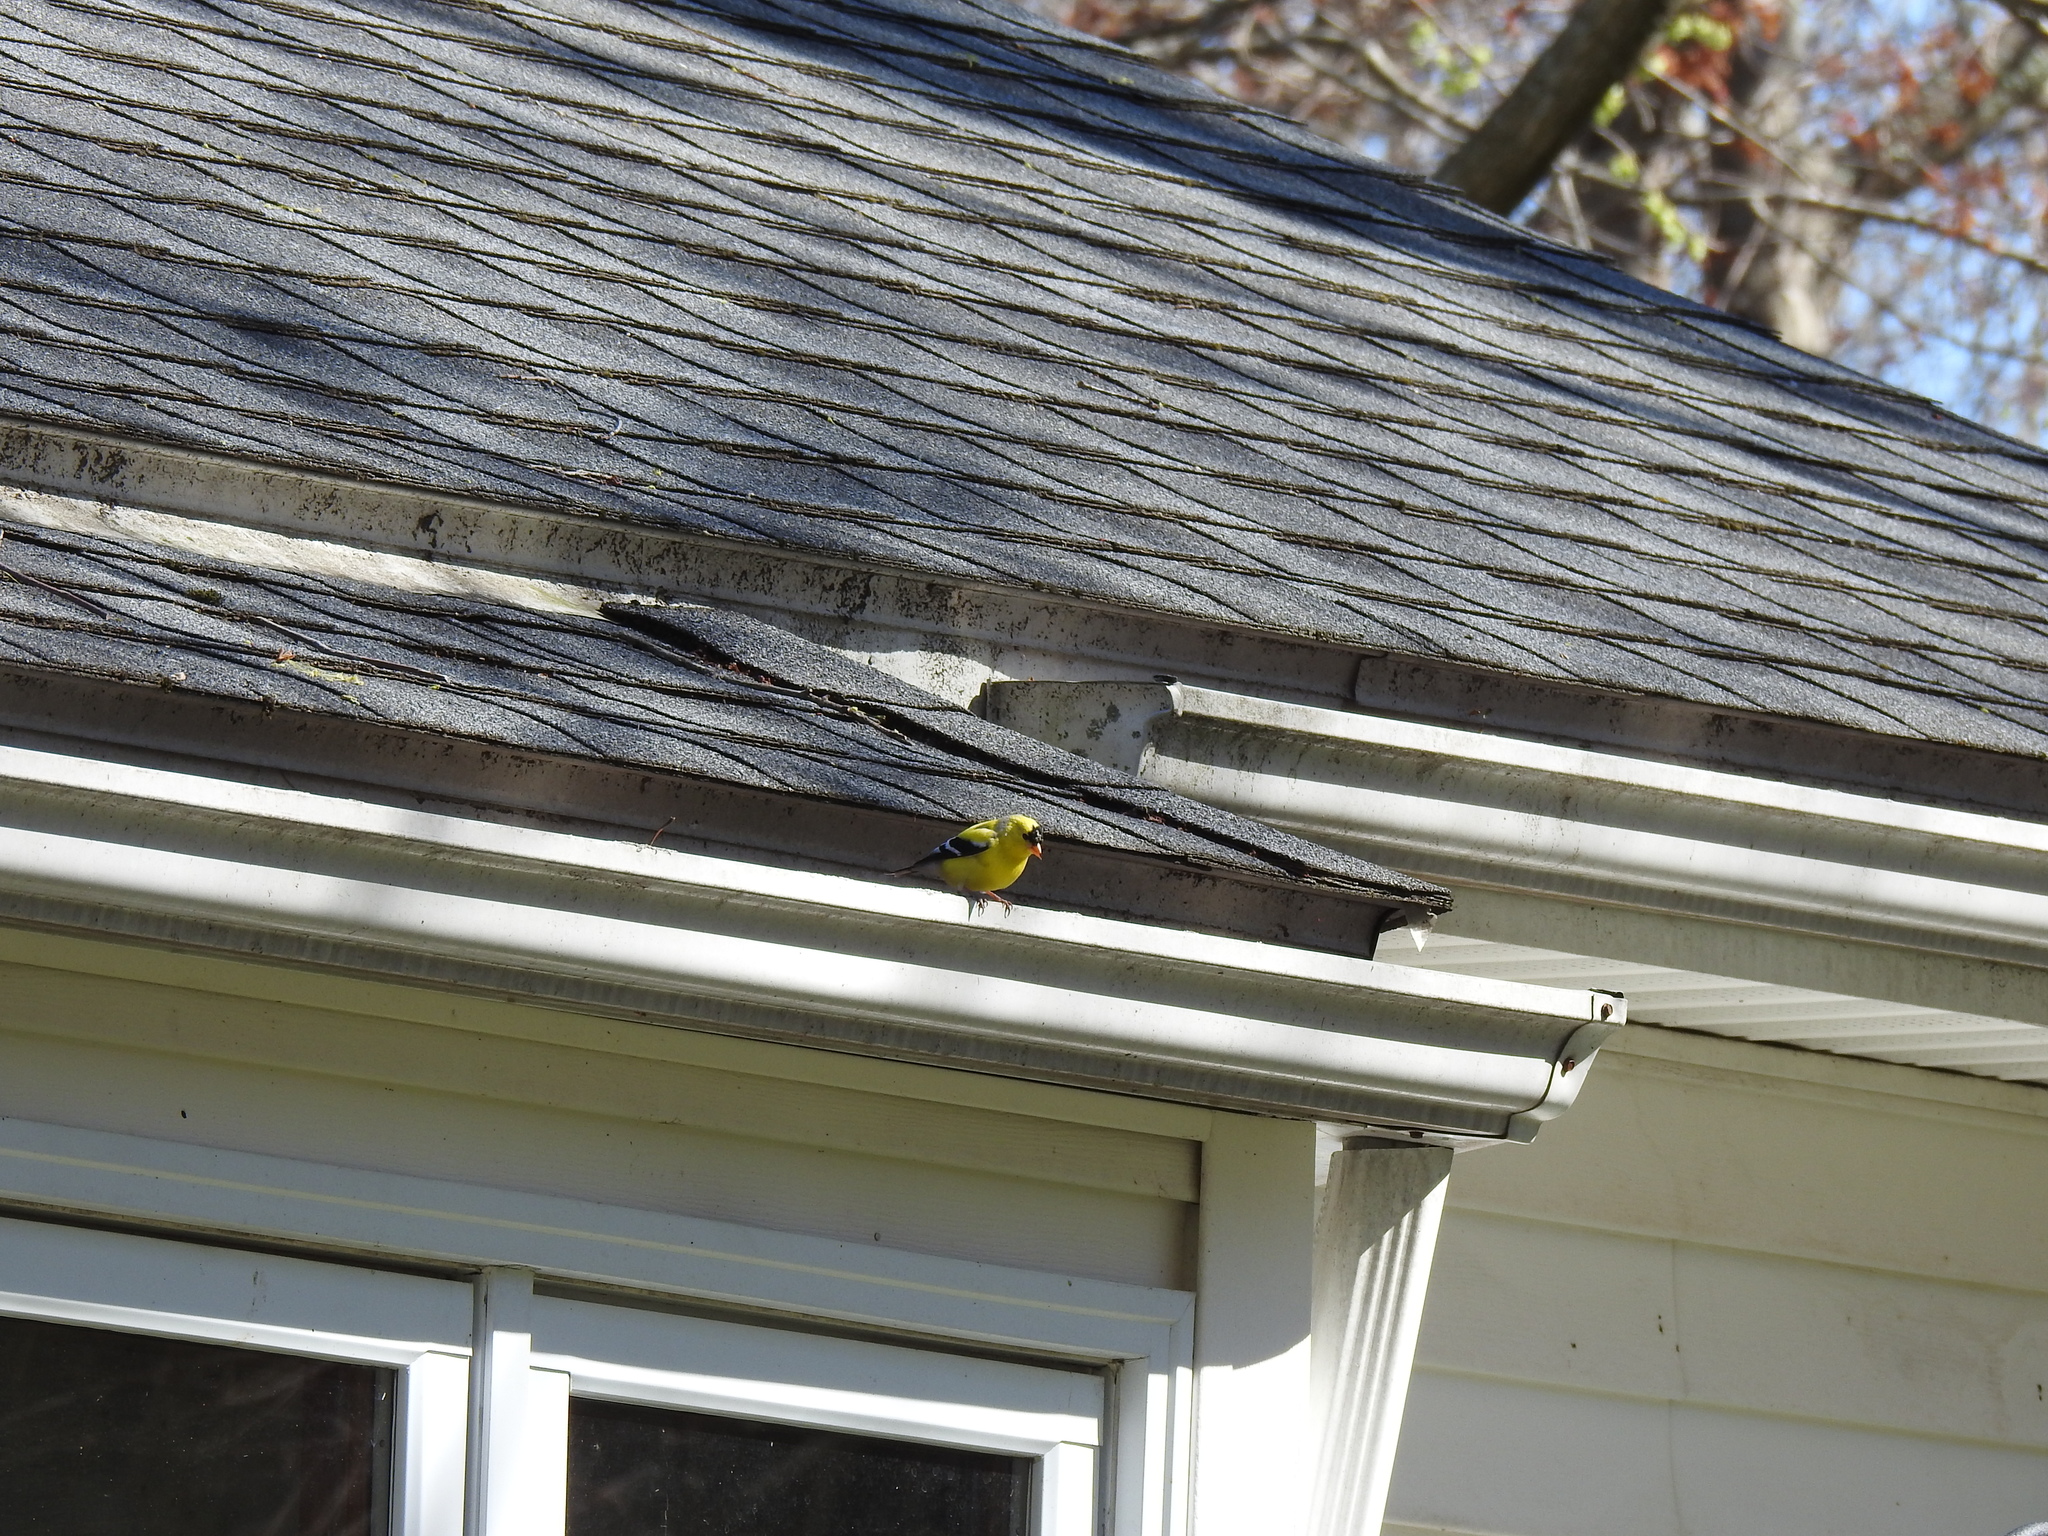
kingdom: Animalia
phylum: Chordata
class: Aves
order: Passeriformes
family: Fringillidae
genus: Spinus
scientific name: Spinus tristis
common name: American goldfinch
